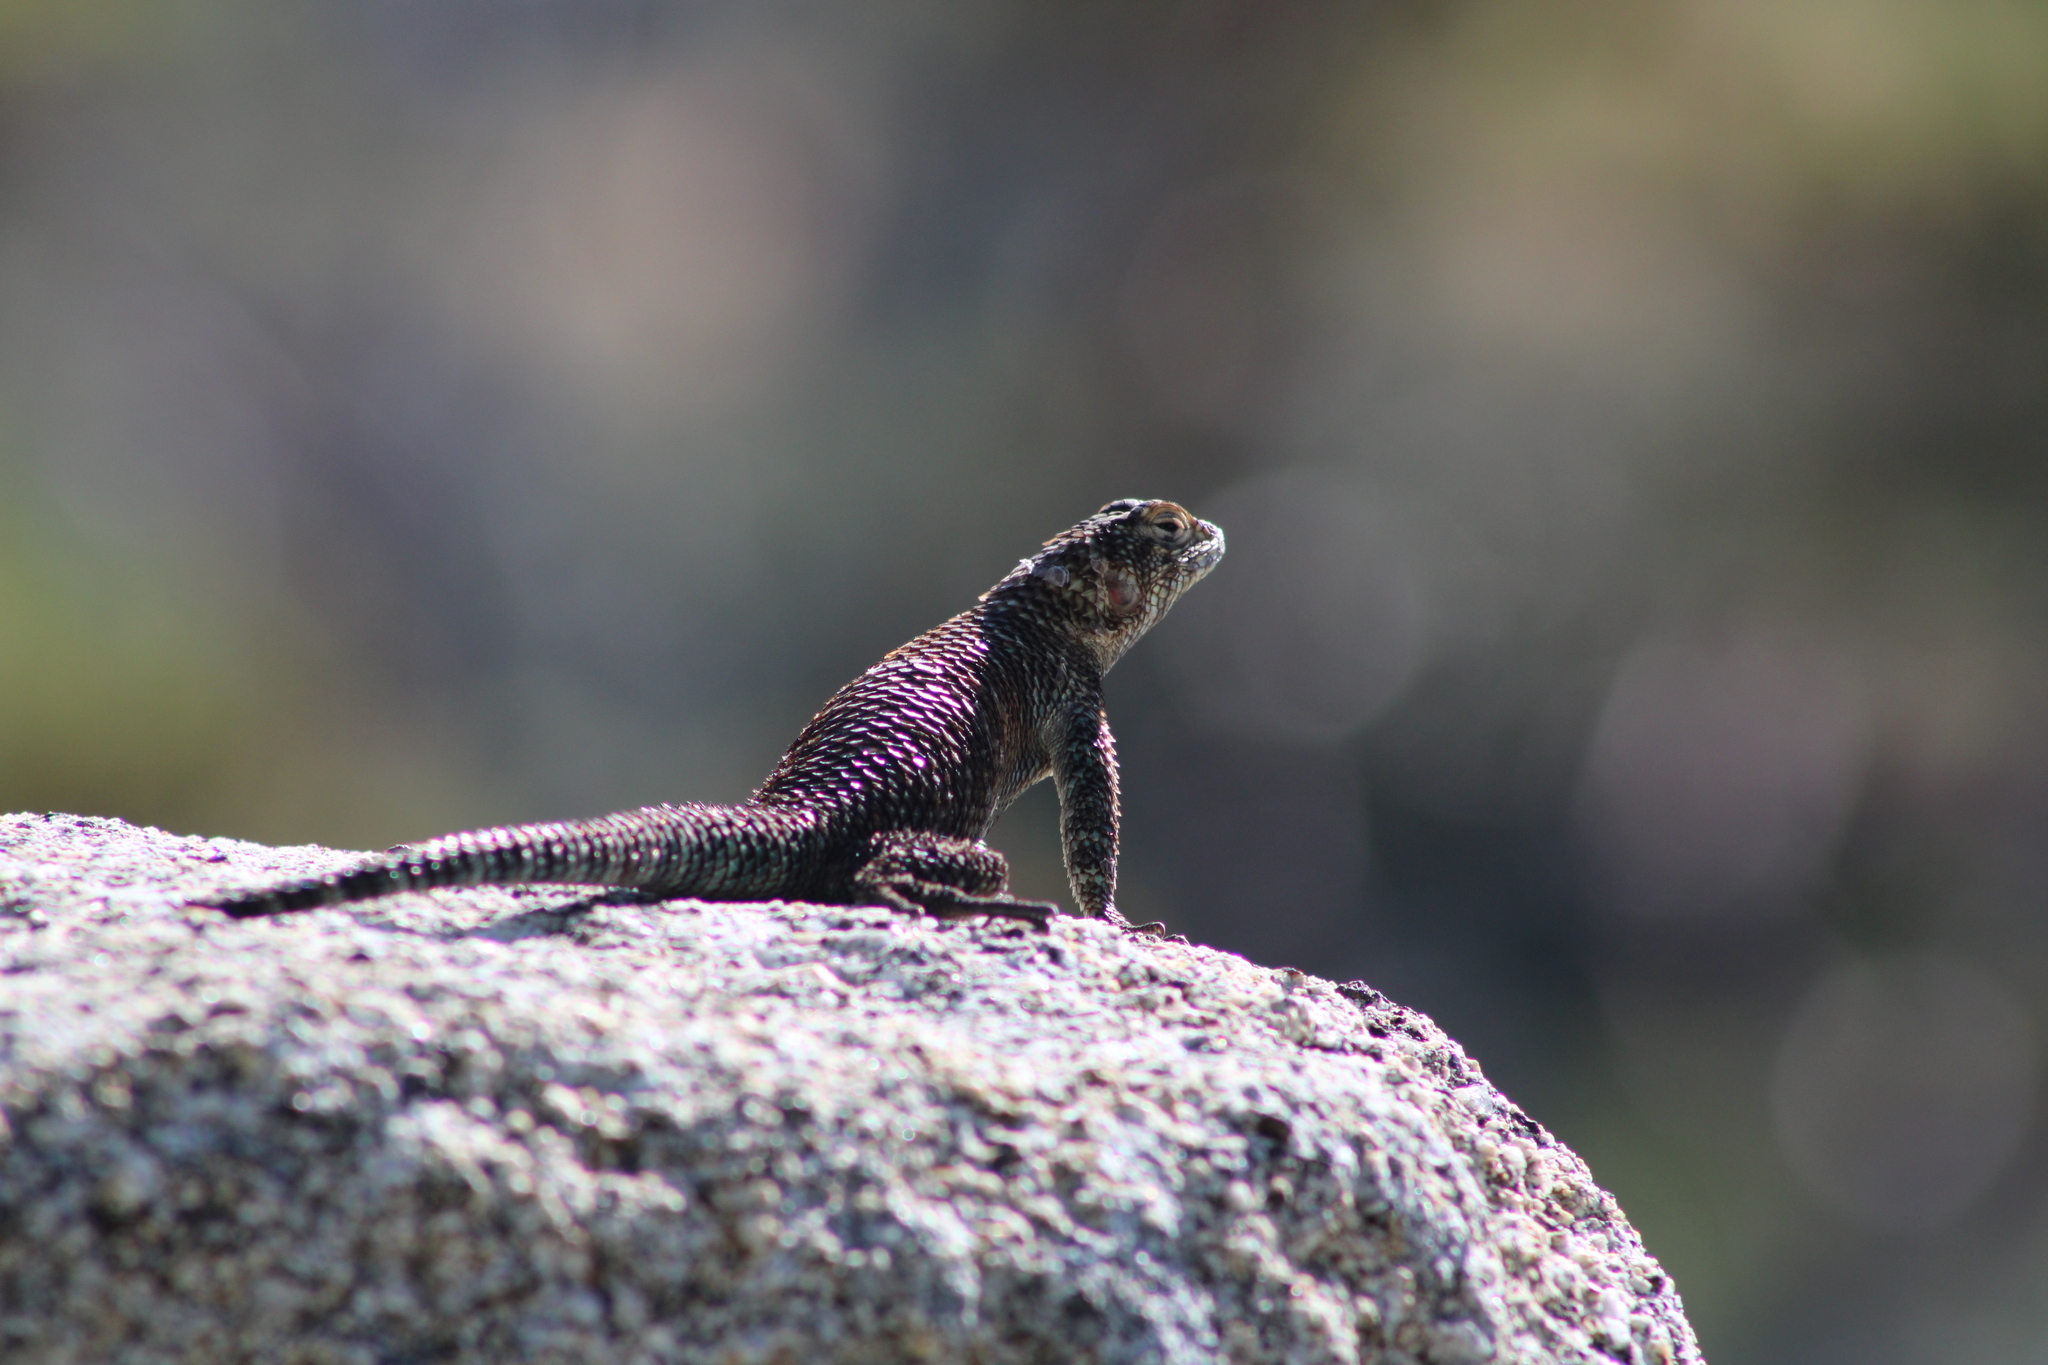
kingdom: Animalia
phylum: Chordata
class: Squamata
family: Phrynosomatidae
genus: Sceloporus
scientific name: Sceloporus orcutti
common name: Granite spiny lizard
